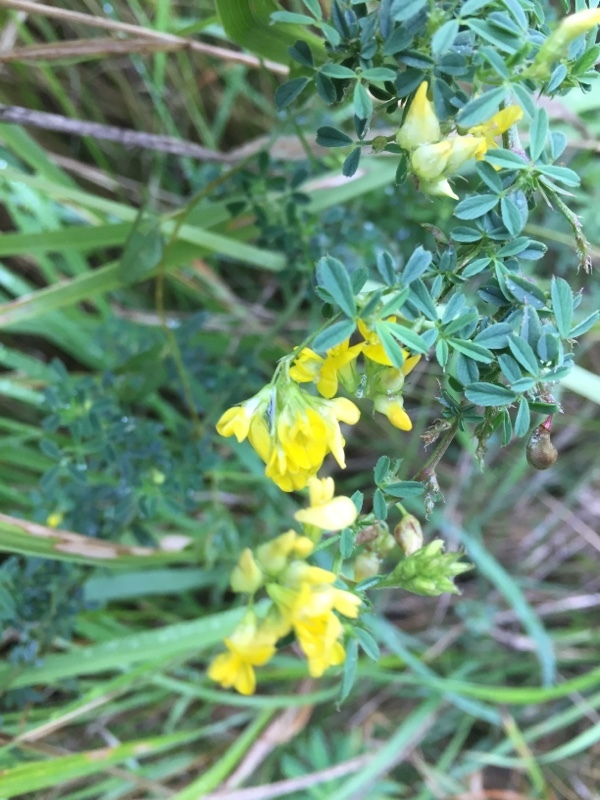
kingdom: Plantae
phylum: Tracheophyta
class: Magnoliopsida
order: Fabales
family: Fabaceae
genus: Medicago
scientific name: Medicago falcata
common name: Sickle medick
